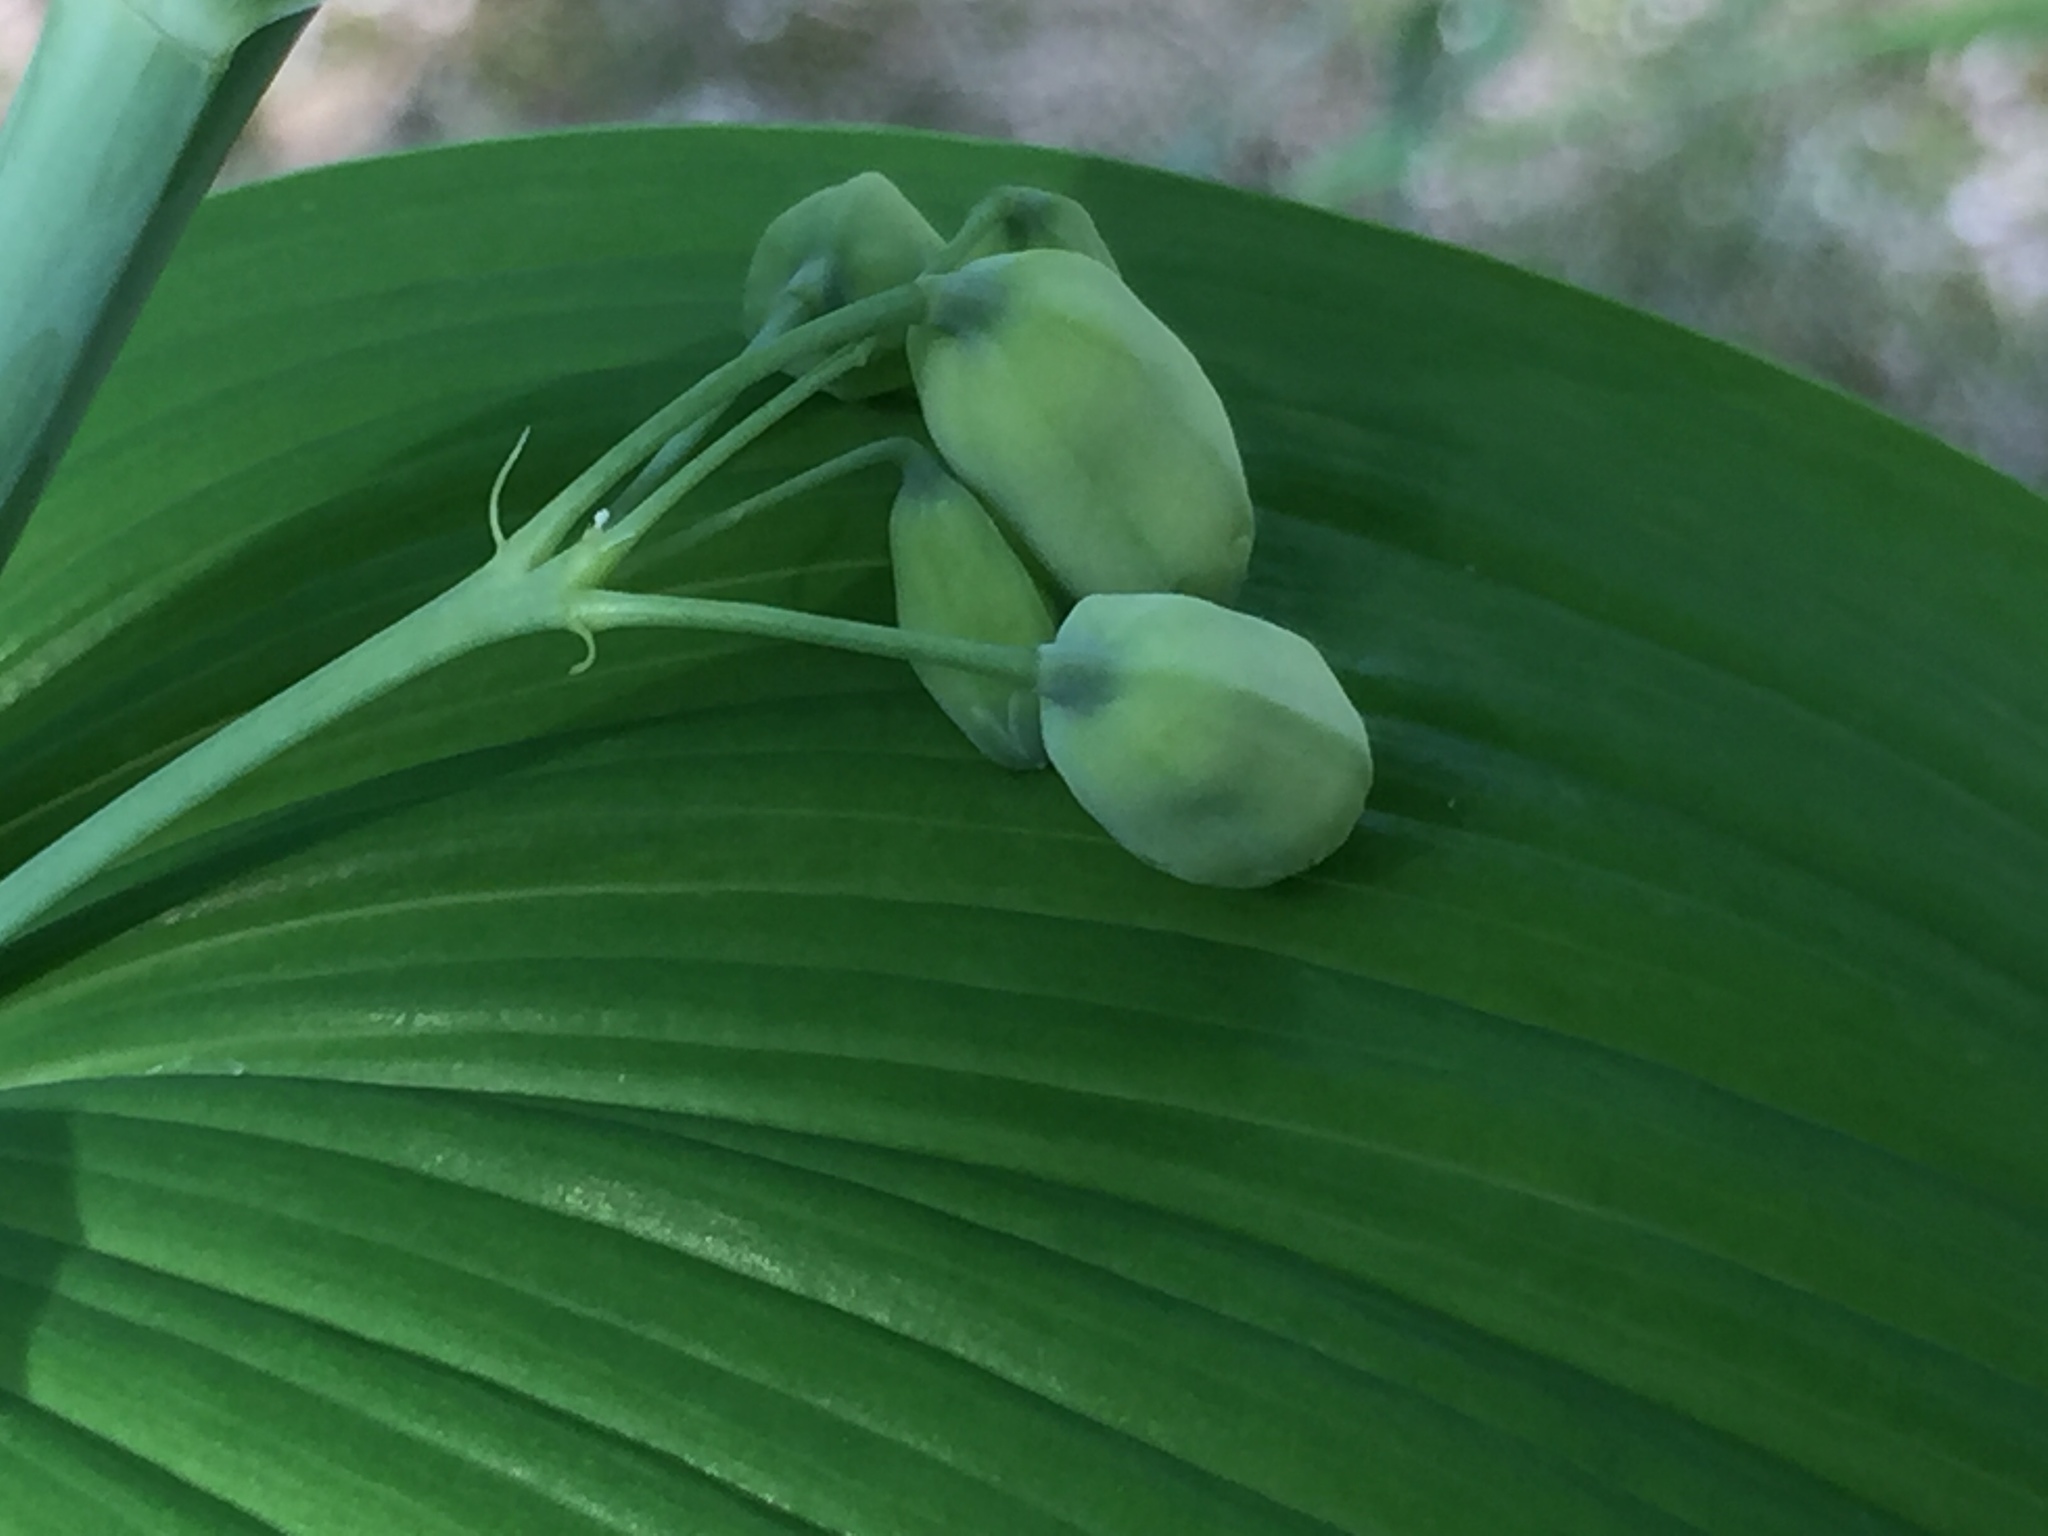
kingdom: Plantae
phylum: Tracheophyta
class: Liliopsida
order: Asparagales
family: Asparagaceae
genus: Polygonatum
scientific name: Polygonatum biflorum
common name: American solomon's-seal
